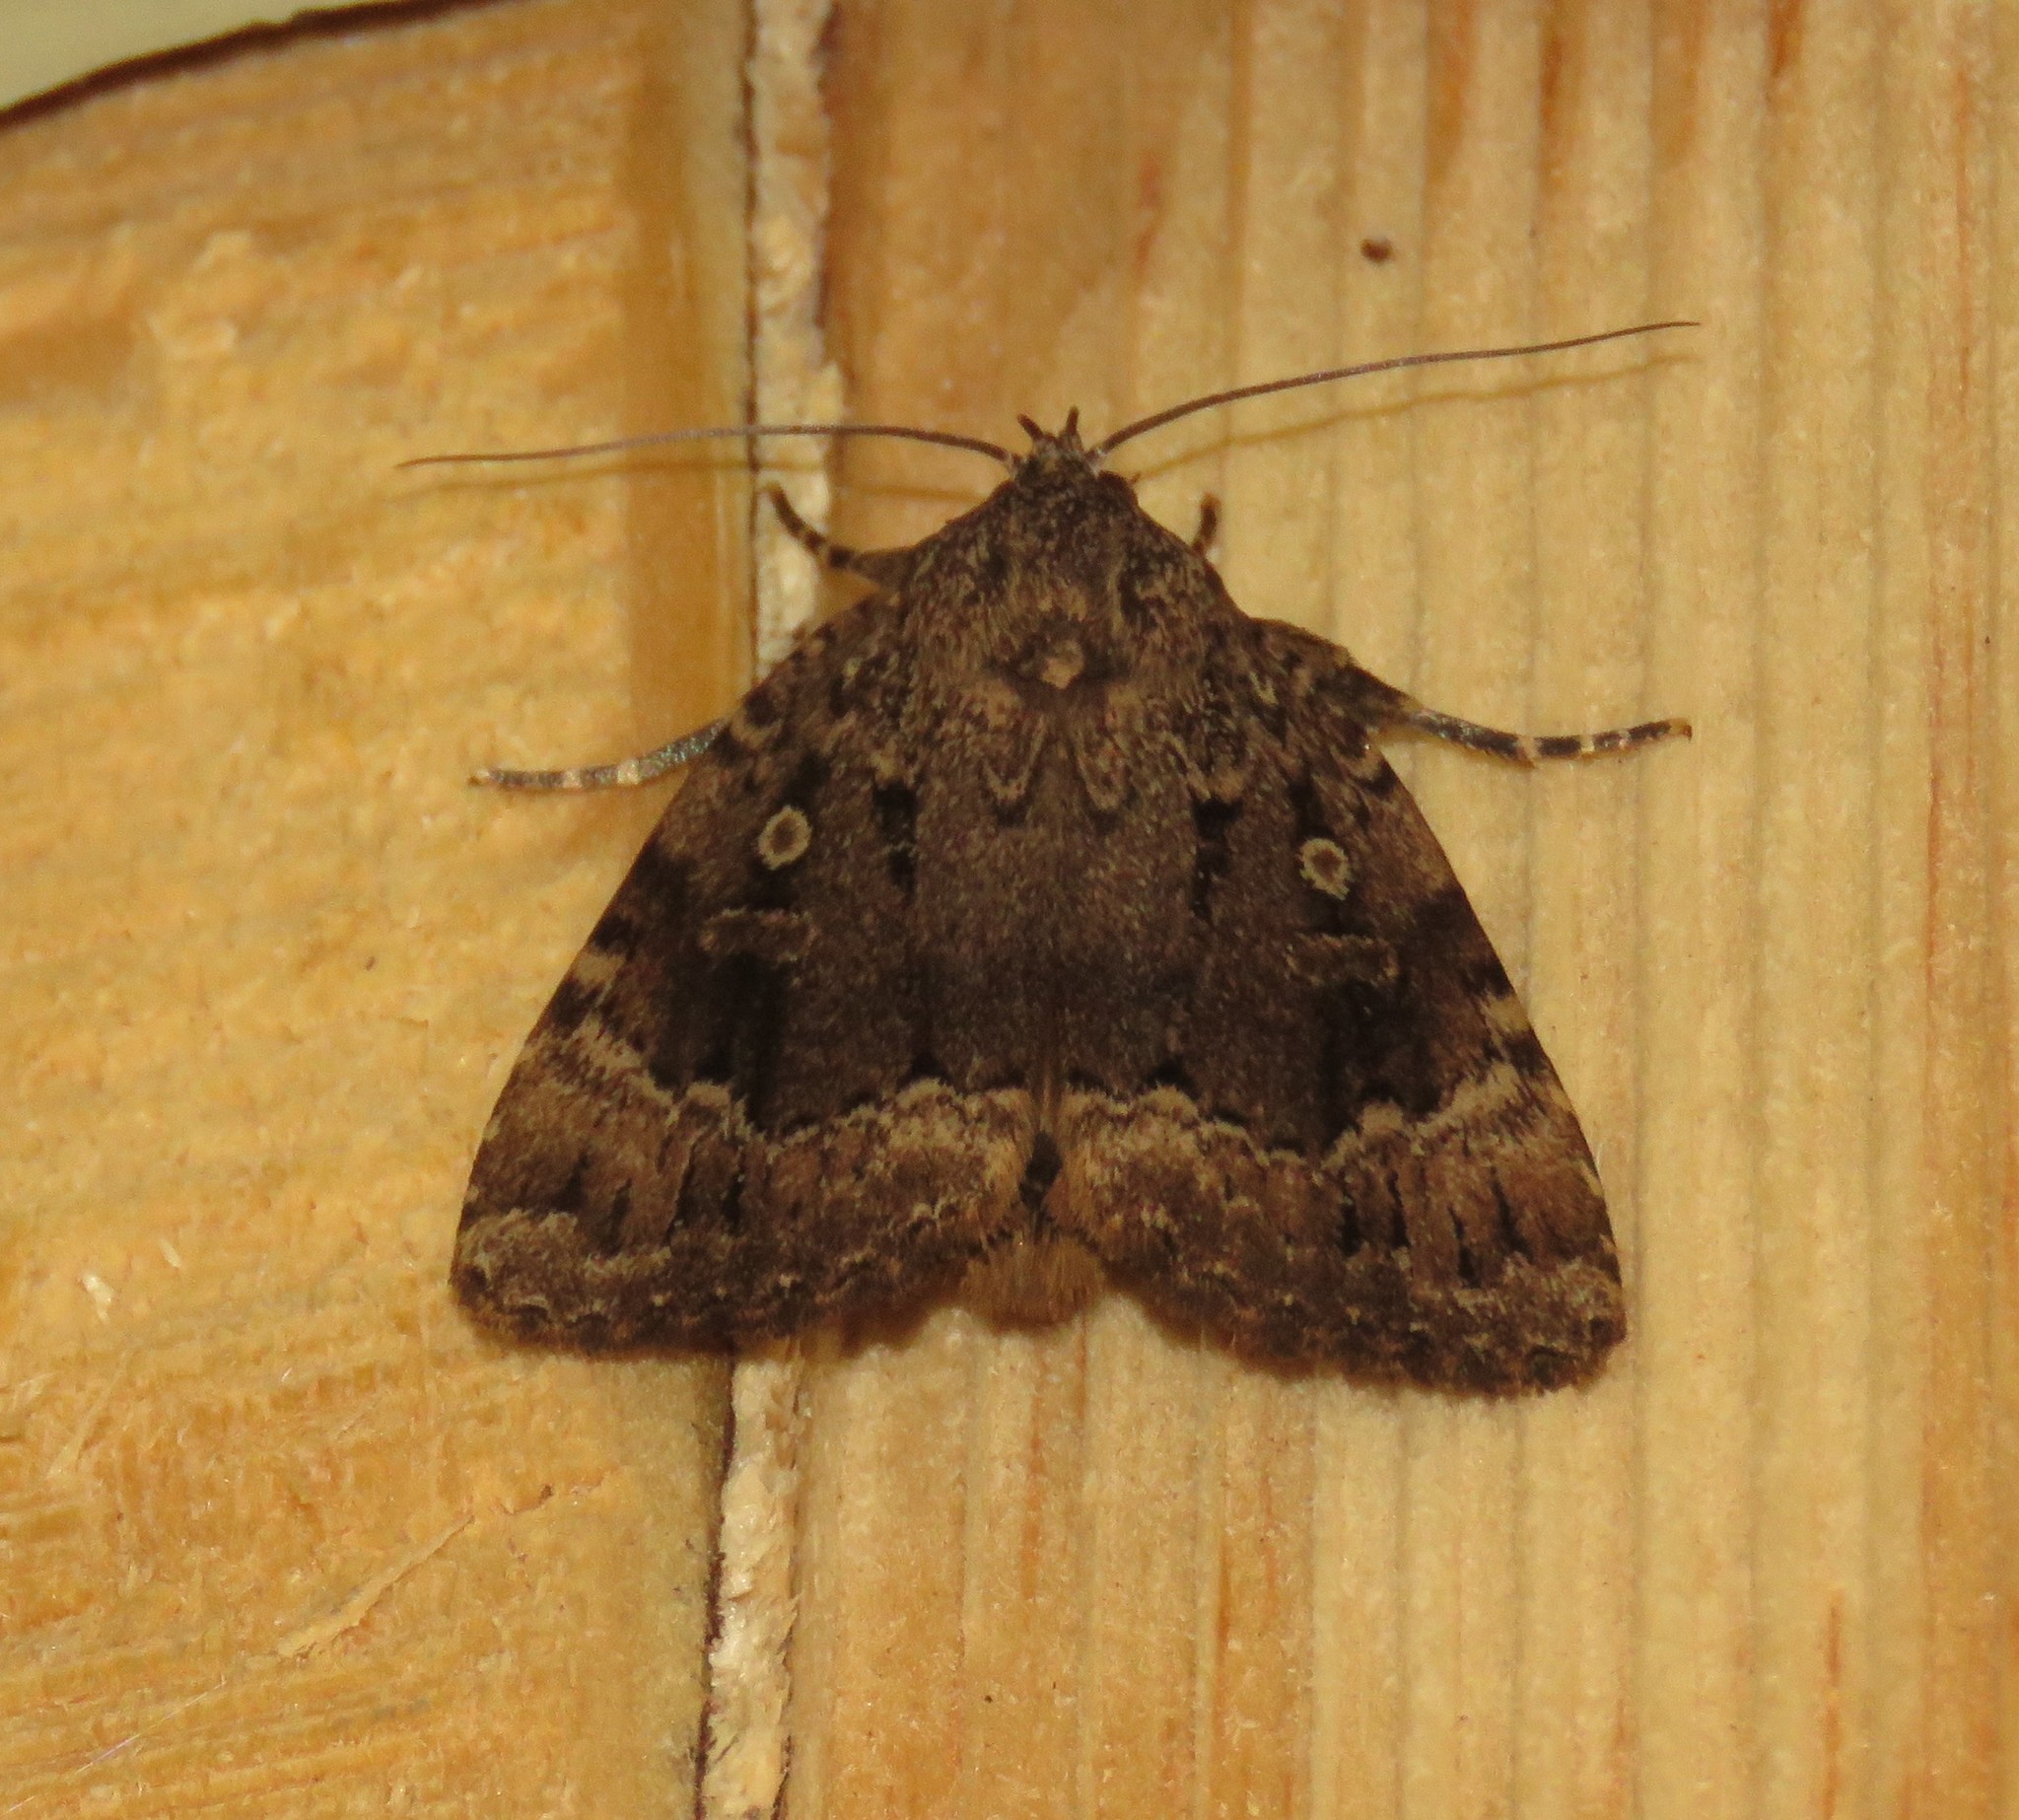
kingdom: Animalia
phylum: Arthropoda
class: Insecta
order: Lepidoptera
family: Noctuidae
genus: Amphipyra
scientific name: Amphipyra pyramidoides
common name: American copper underwing
